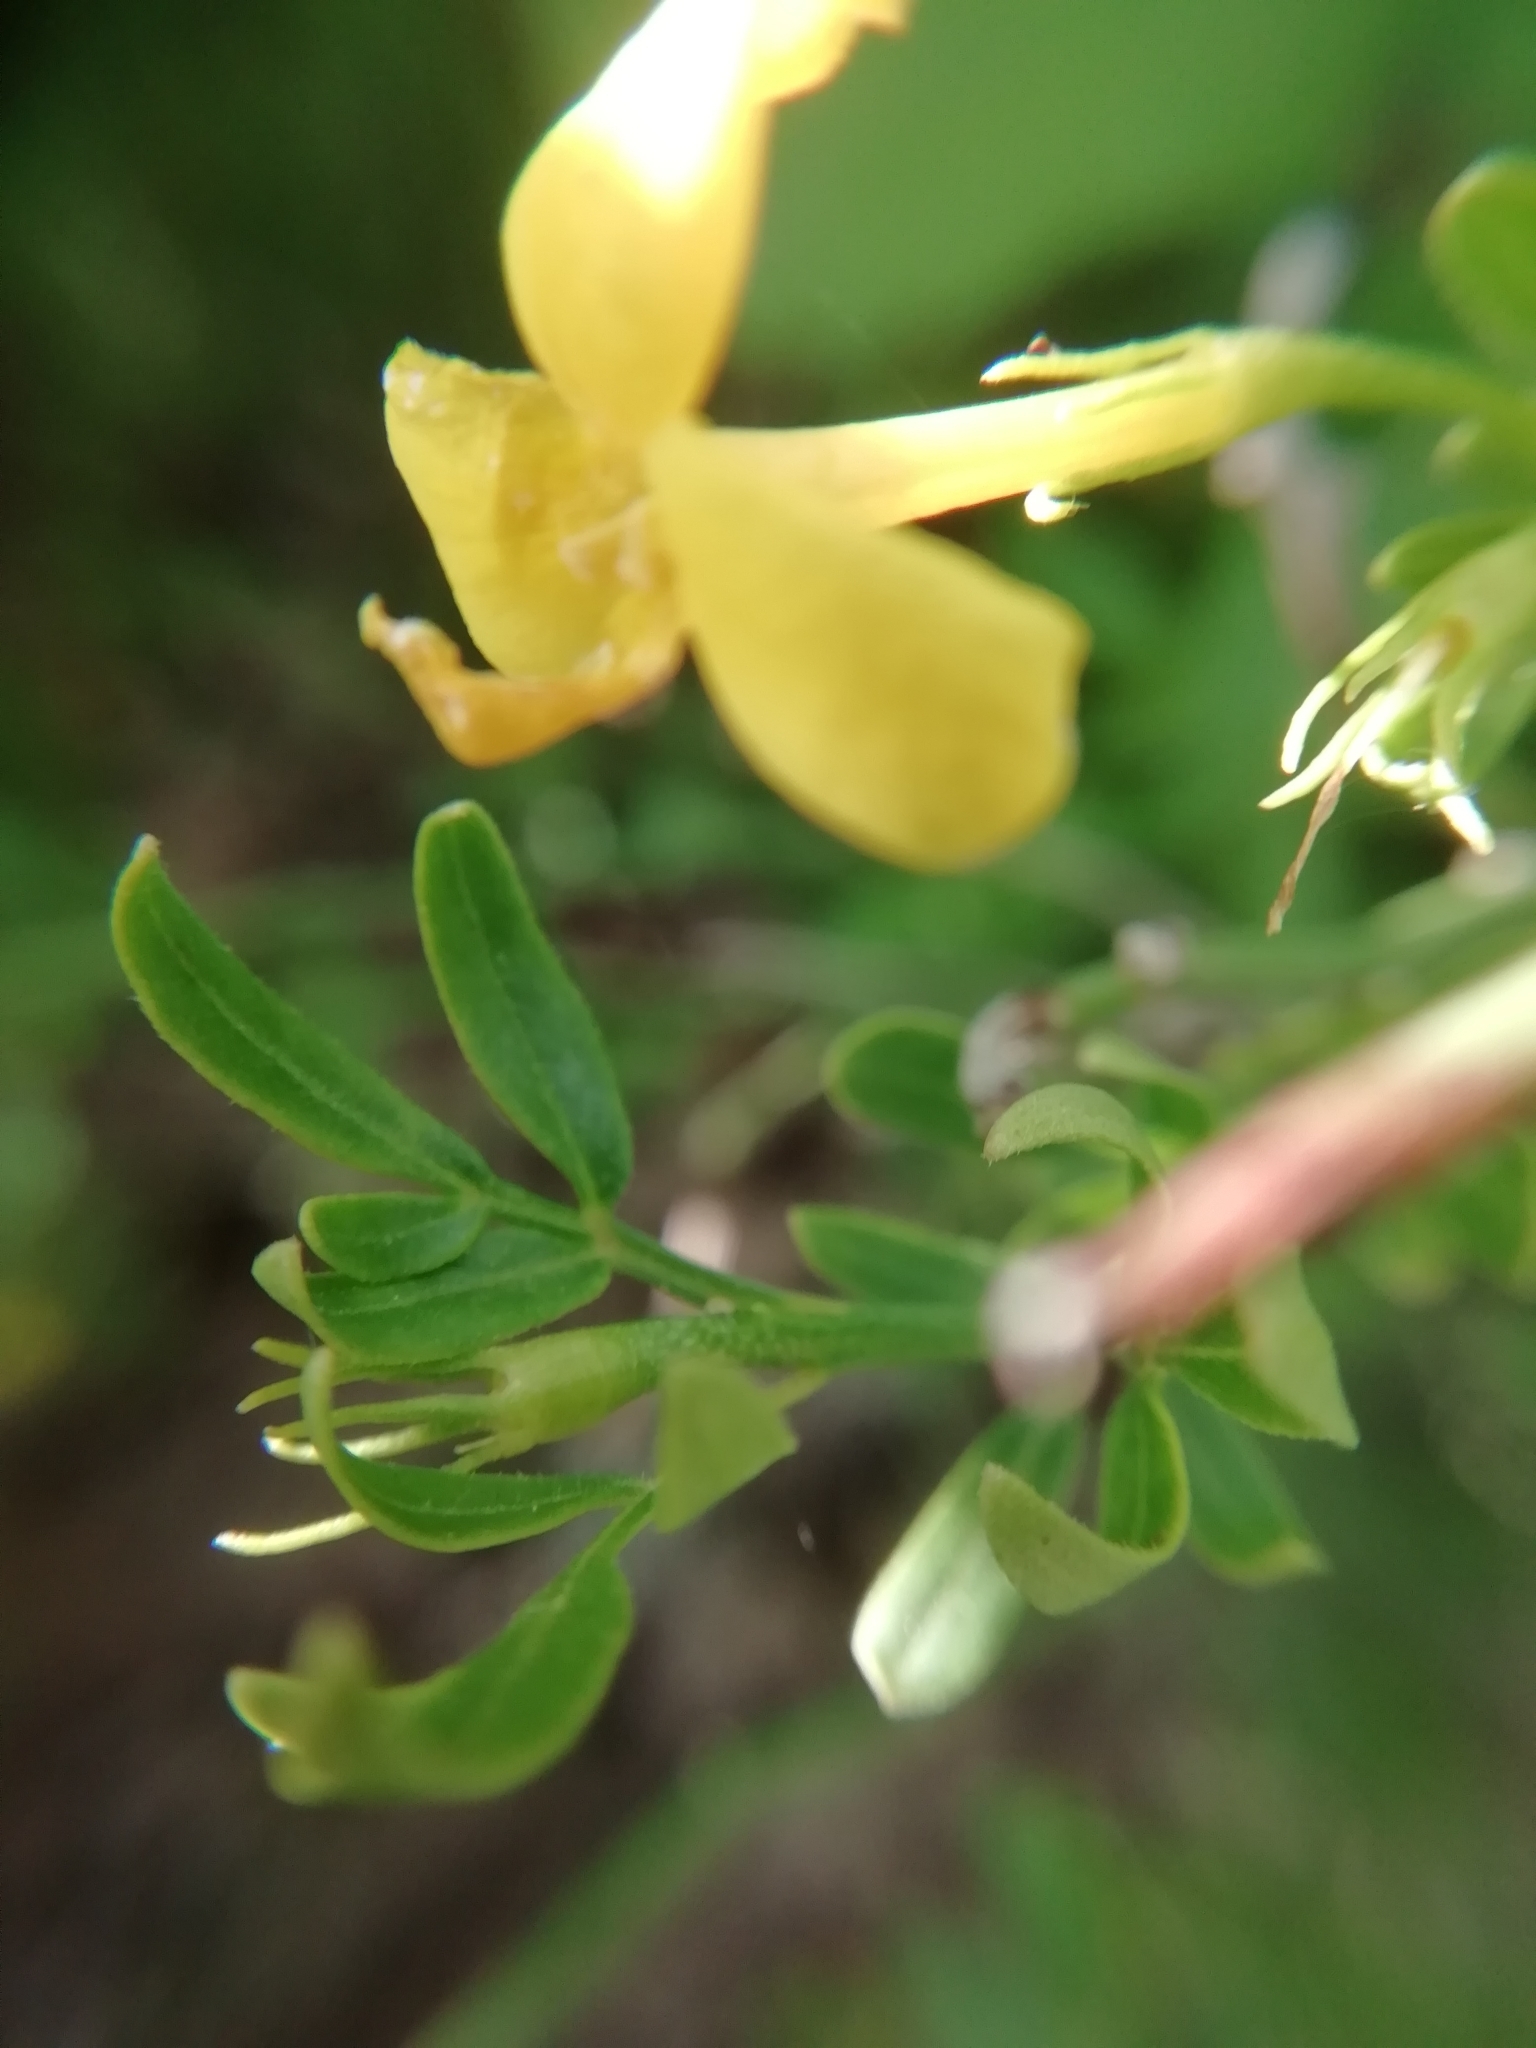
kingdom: Plantae
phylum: Tracheophyta
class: Magnoliopsida
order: Lamiales
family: Oleaceae
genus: Chrysojasminum
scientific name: Chrysojasminum fruticans
